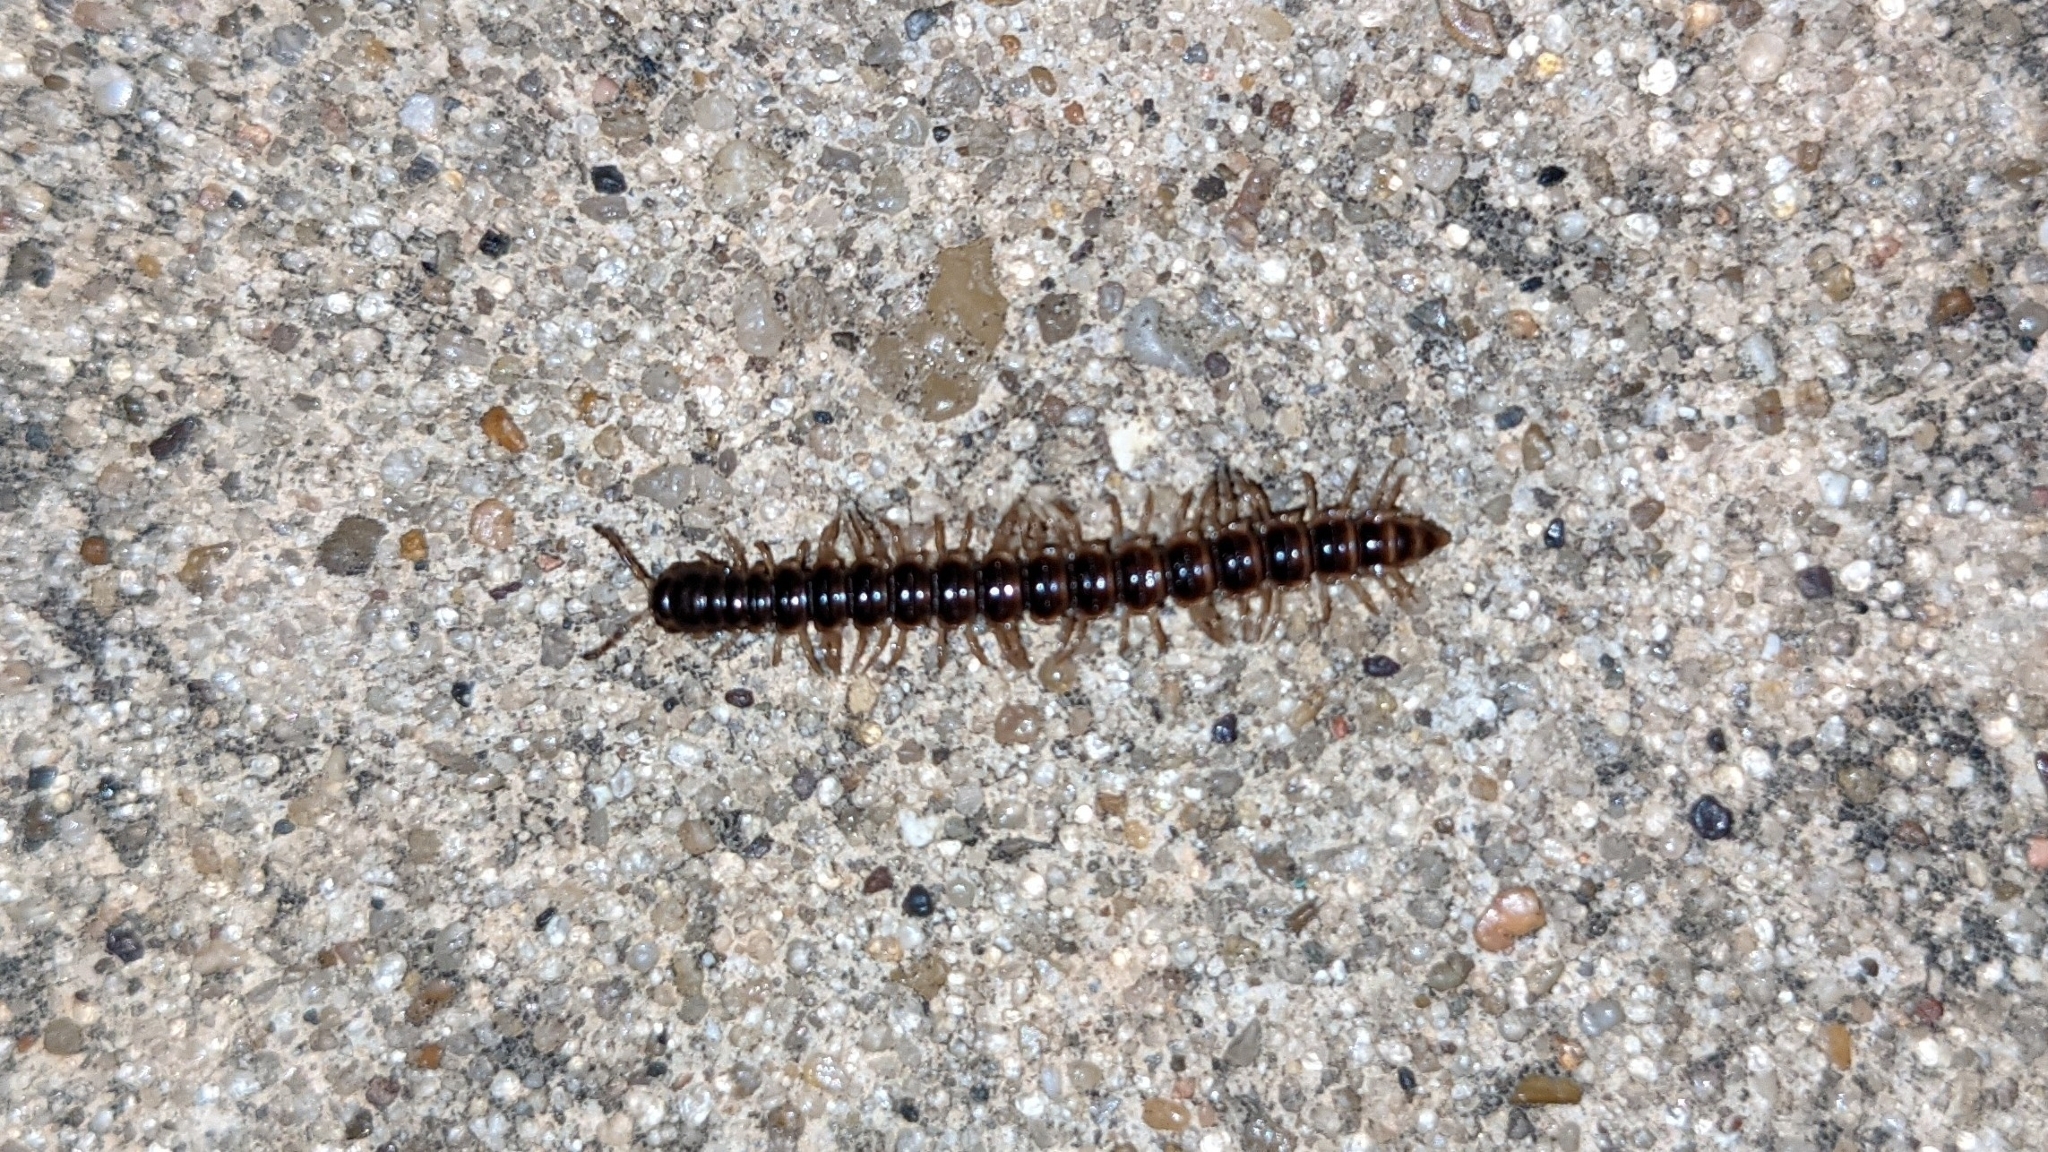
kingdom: Animalia
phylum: Arthropoda
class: Diplopoda
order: Polydesmida
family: Paradoxosomatidae
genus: Oxidus
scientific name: Oxidus gracilis
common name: Greenhouse millipede
